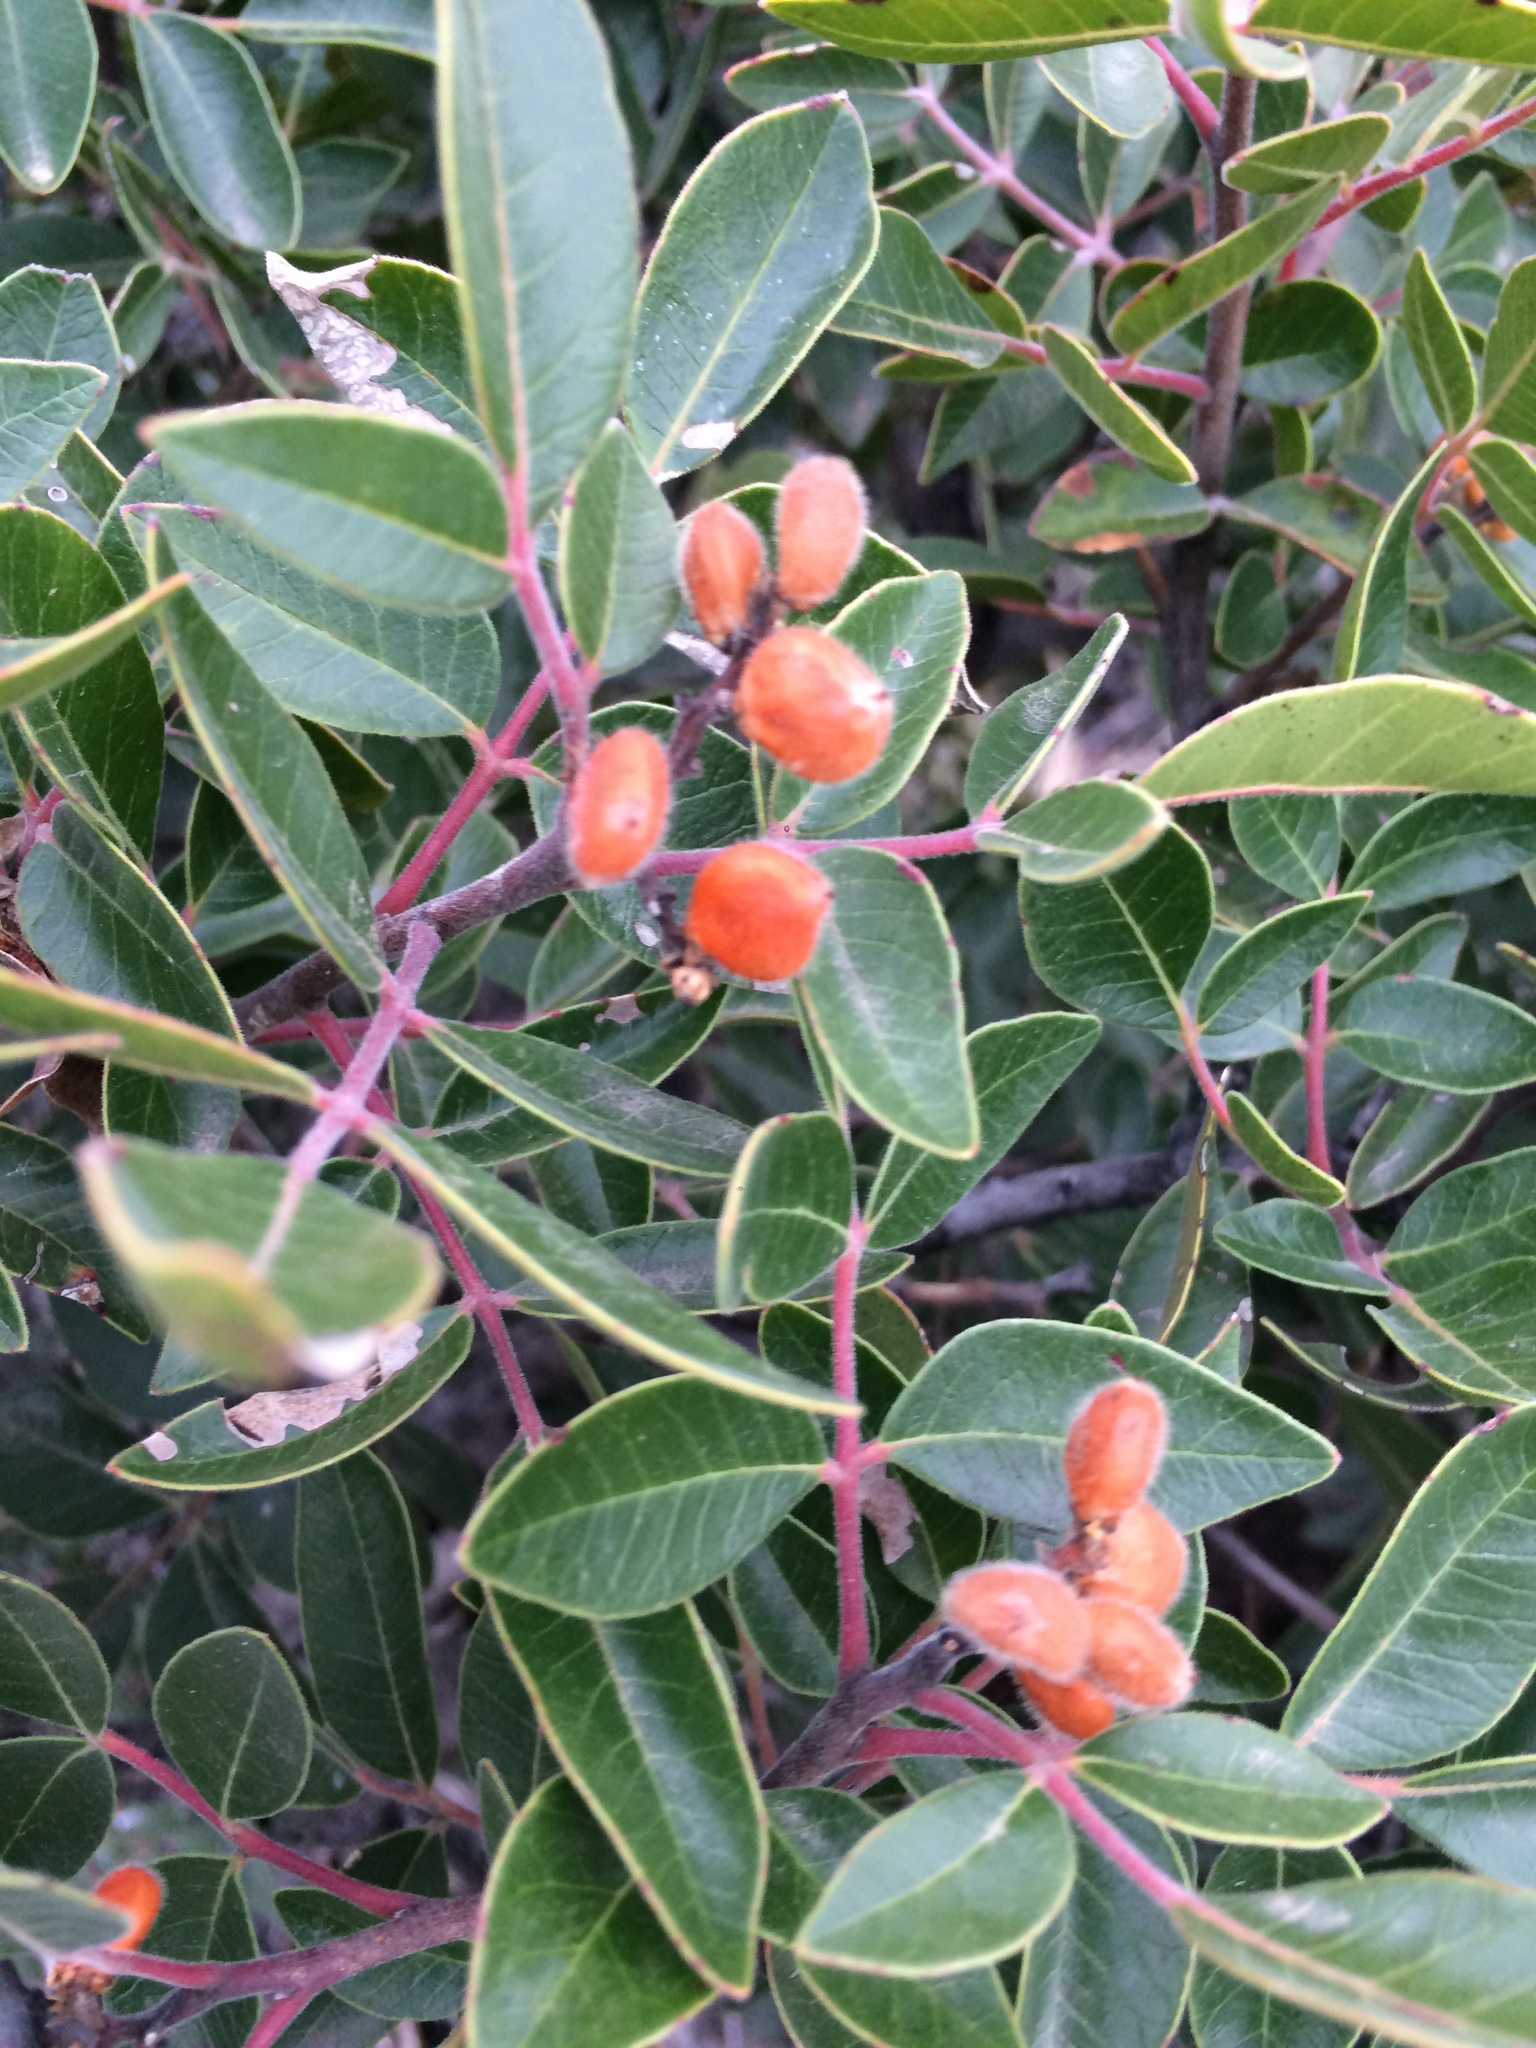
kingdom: Plantae
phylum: Tracheophyta
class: Magnoliopsida
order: Sapindales
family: Anacardiaceae
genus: Rhus
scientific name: Rhus virens
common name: Evergreen sumac
